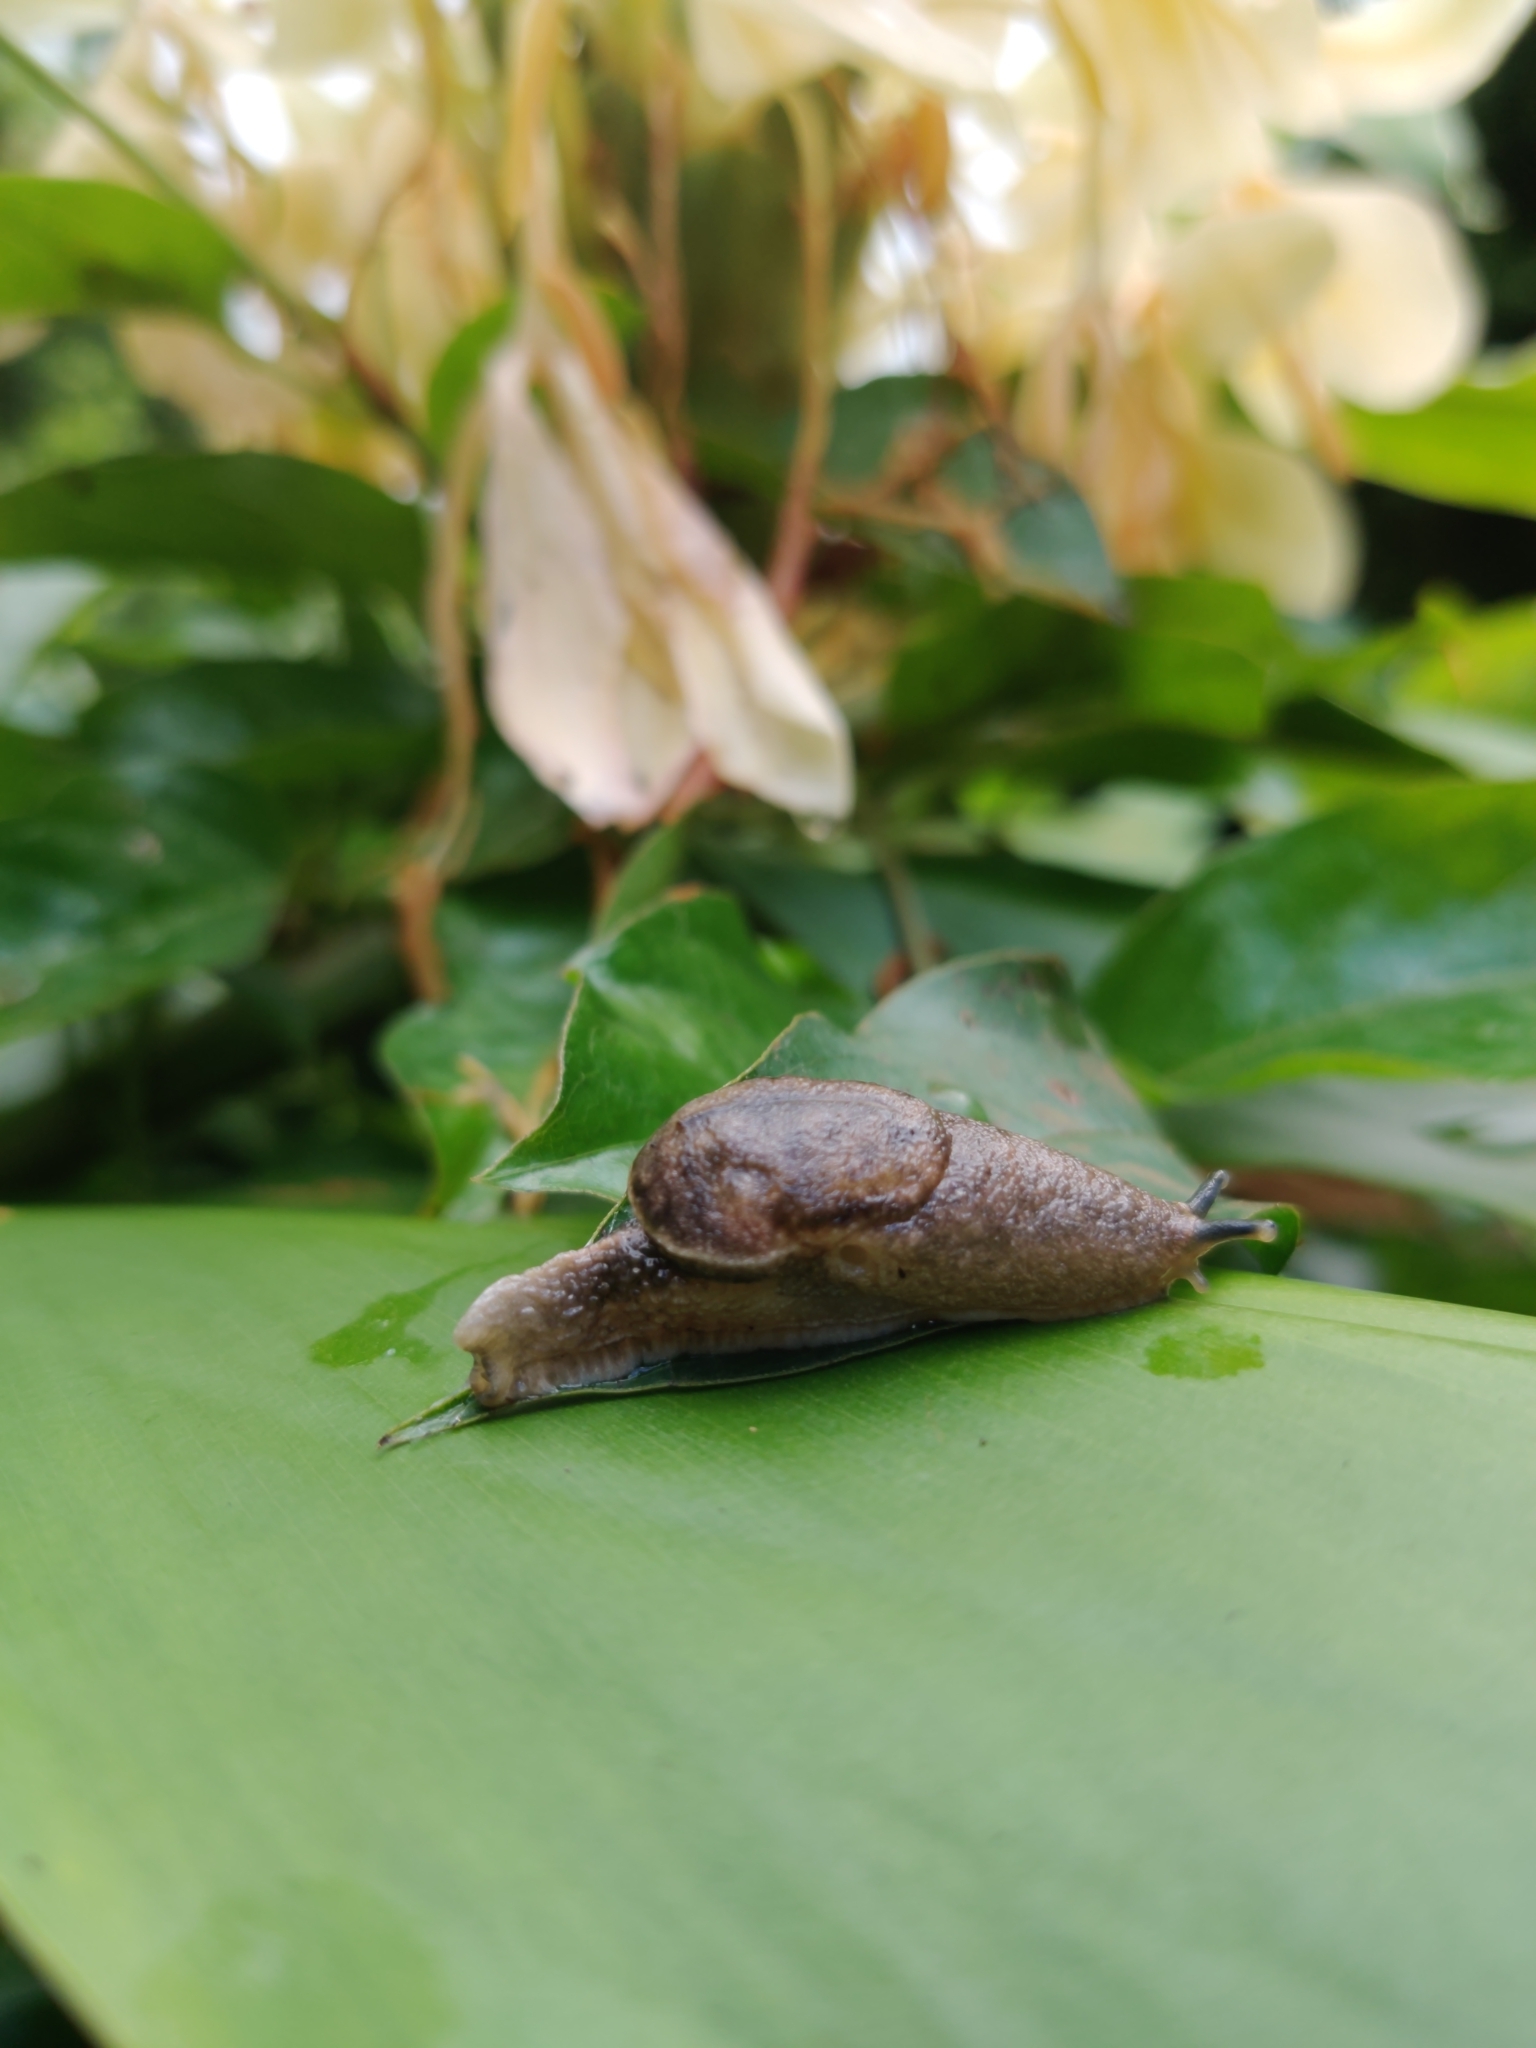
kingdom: Animalia
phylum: Mollusca
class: Gastropoda
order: Stylommatophora
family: Ariophantidae
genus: Parmarion
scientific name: Parmarion martensi
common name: Semi-slug
